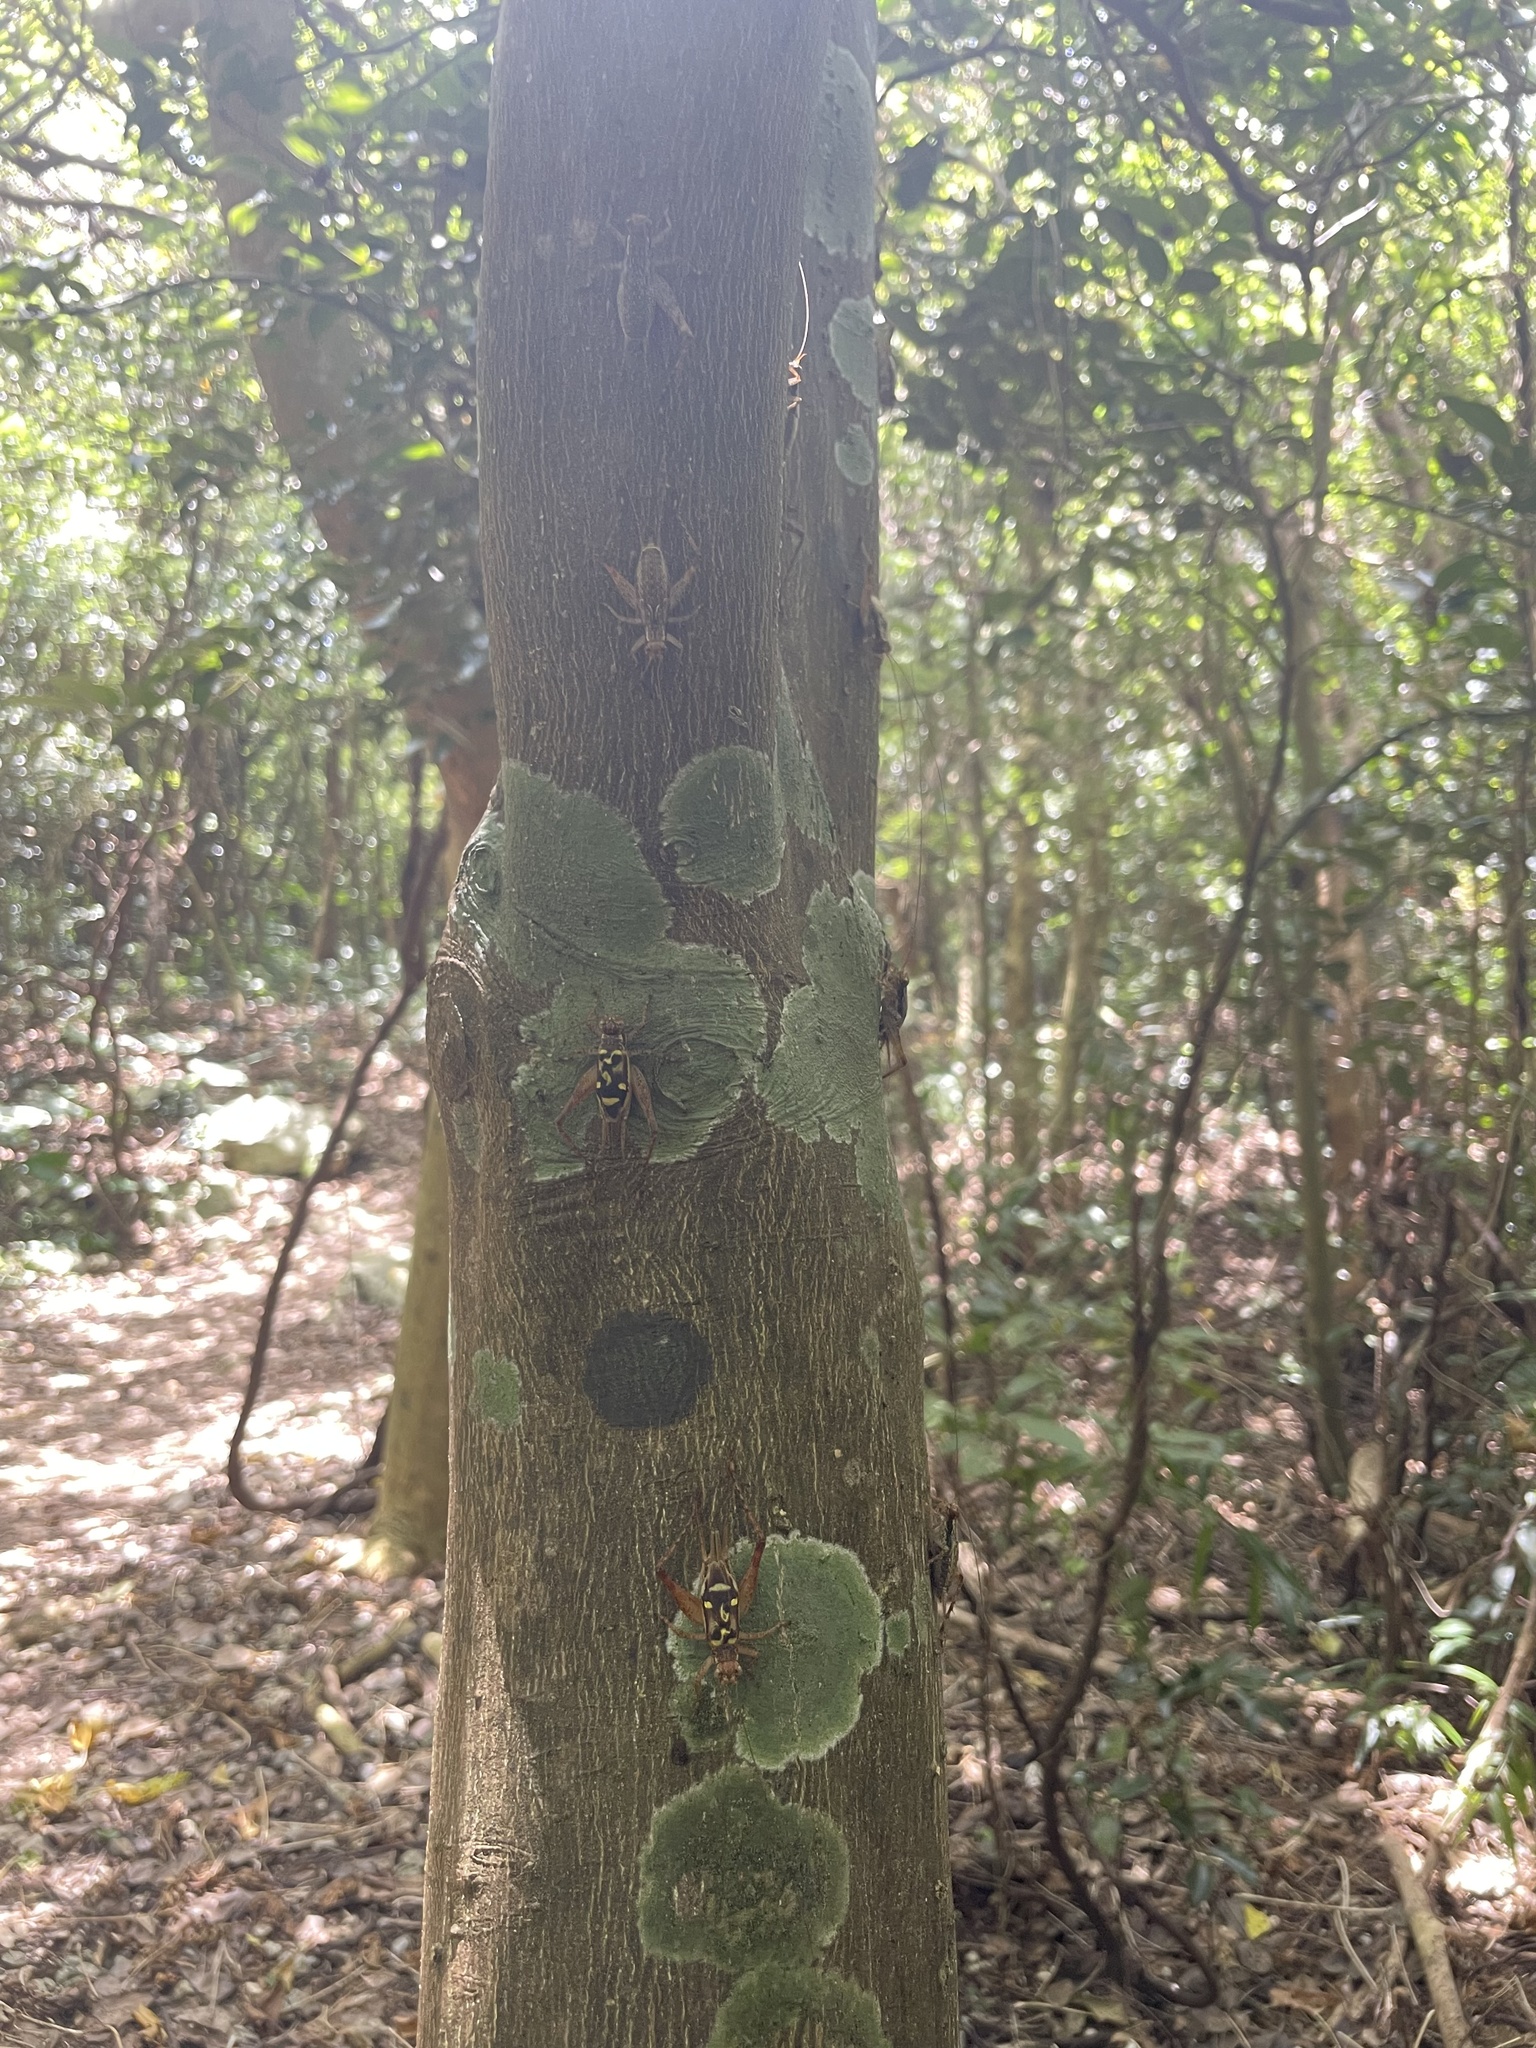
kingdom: Animalia
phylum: Arthropoda
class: Insecta
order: Orthoptera
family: Gryllidae
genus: Cardiodactylus
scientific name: Cardiodactylus guttulus
